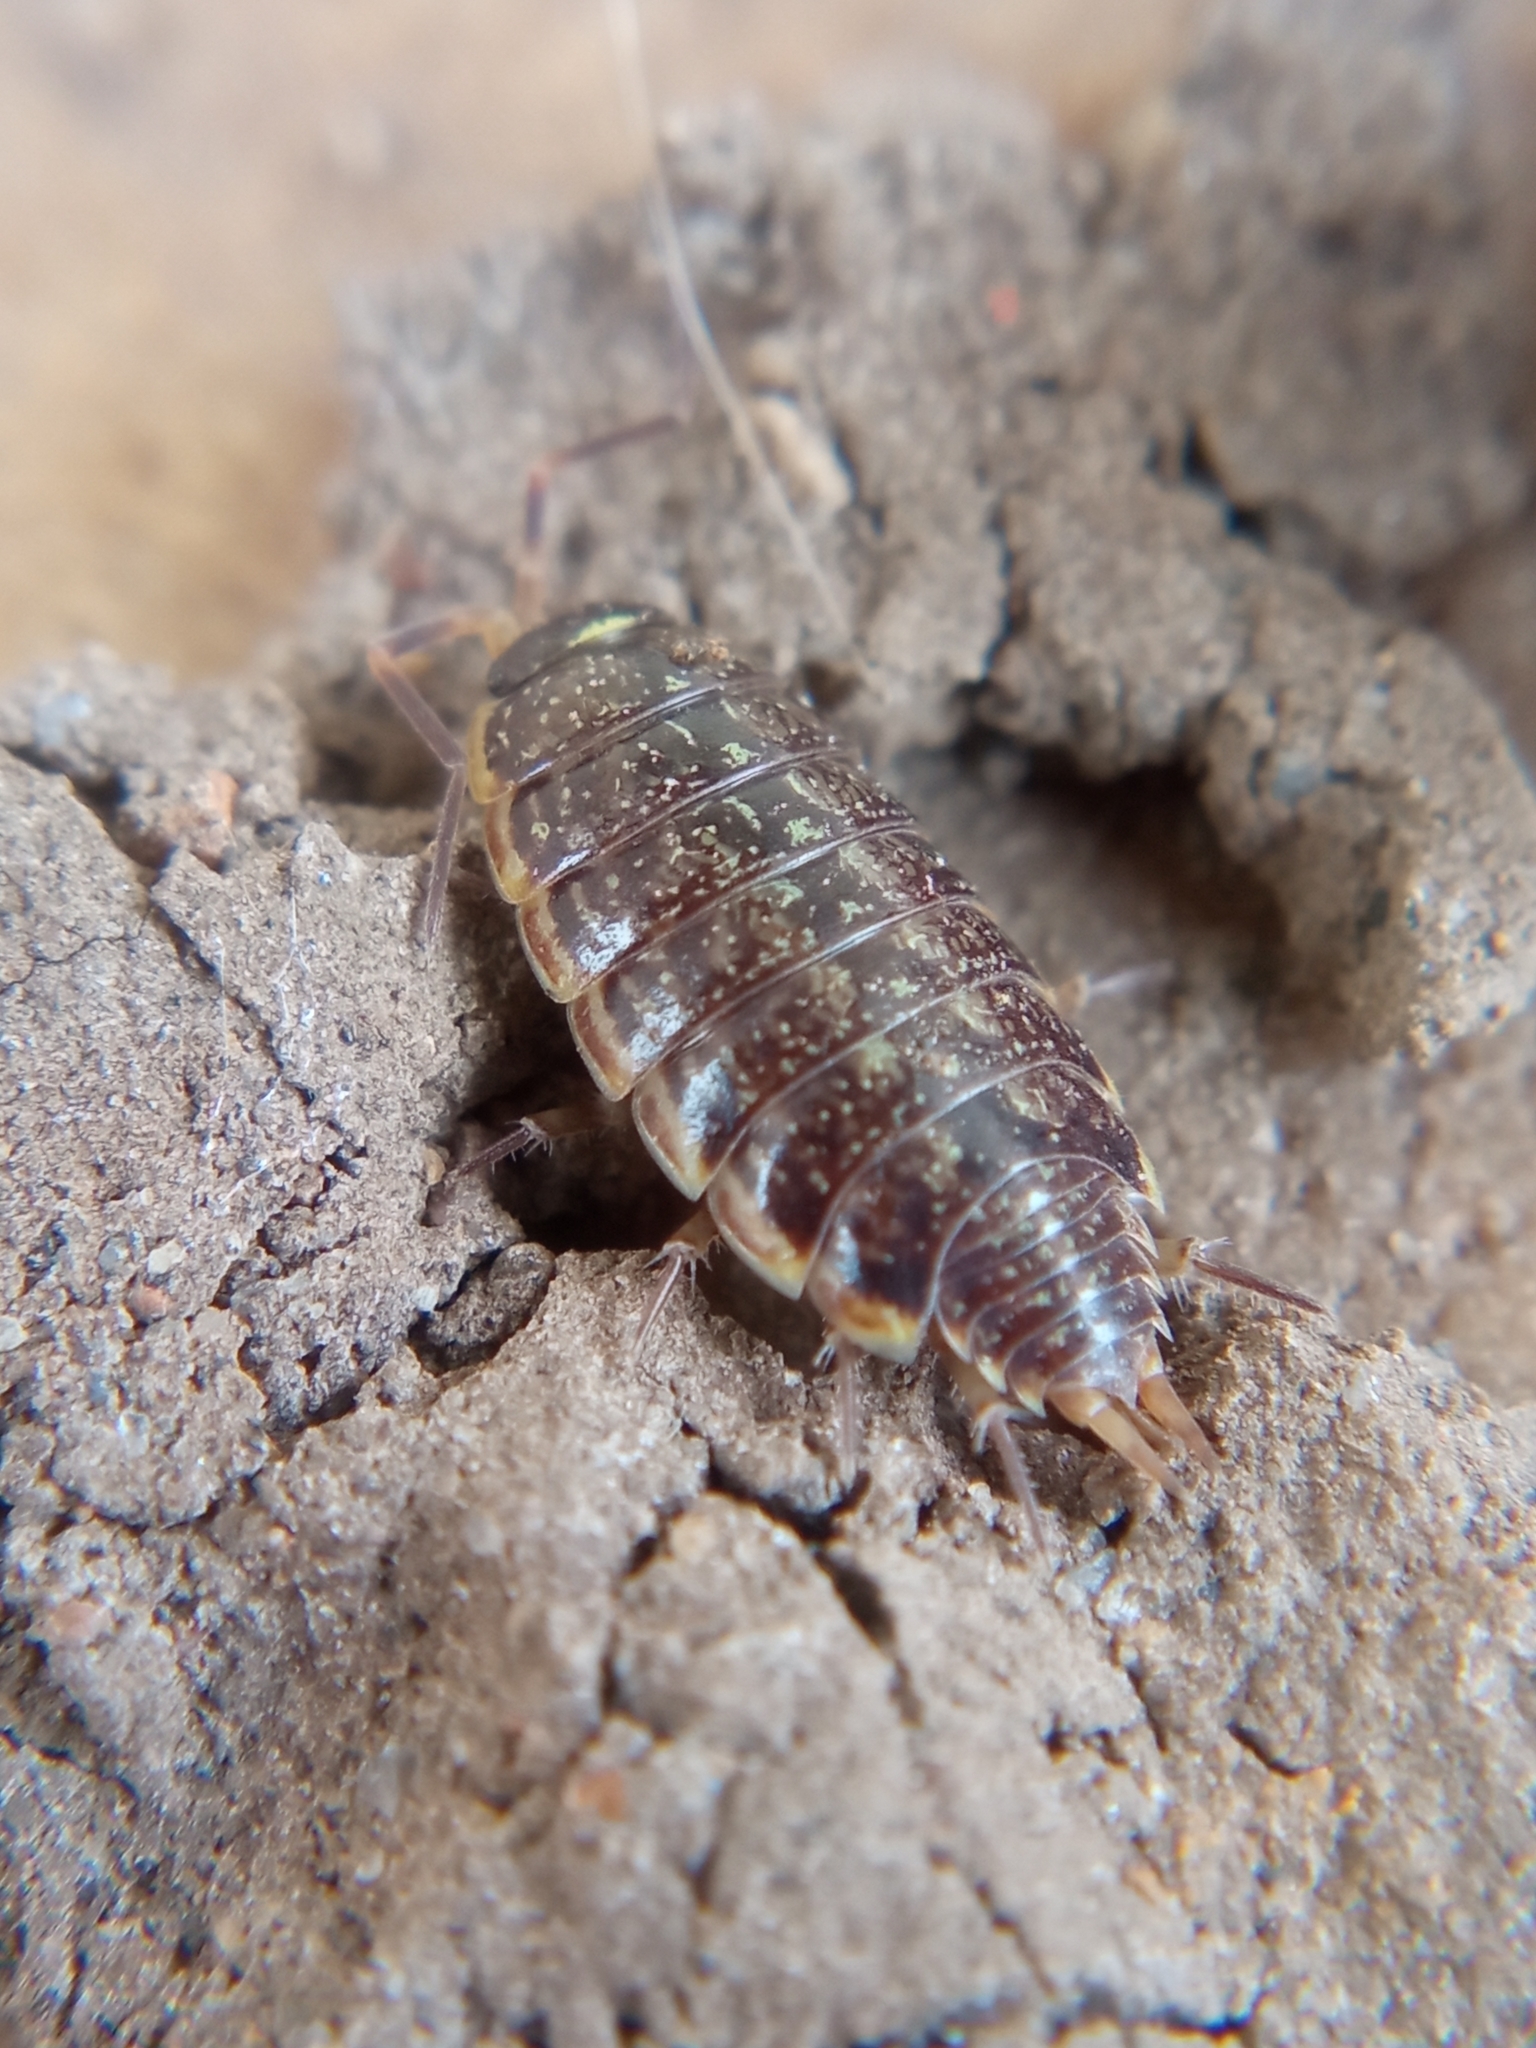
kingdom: Animalia
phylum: Arthropoda
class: Malacostraca
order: Isopoda
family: Philosciidae
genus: Philoscia
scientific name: Philoscia muscorum
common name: Common striped woodlouse
